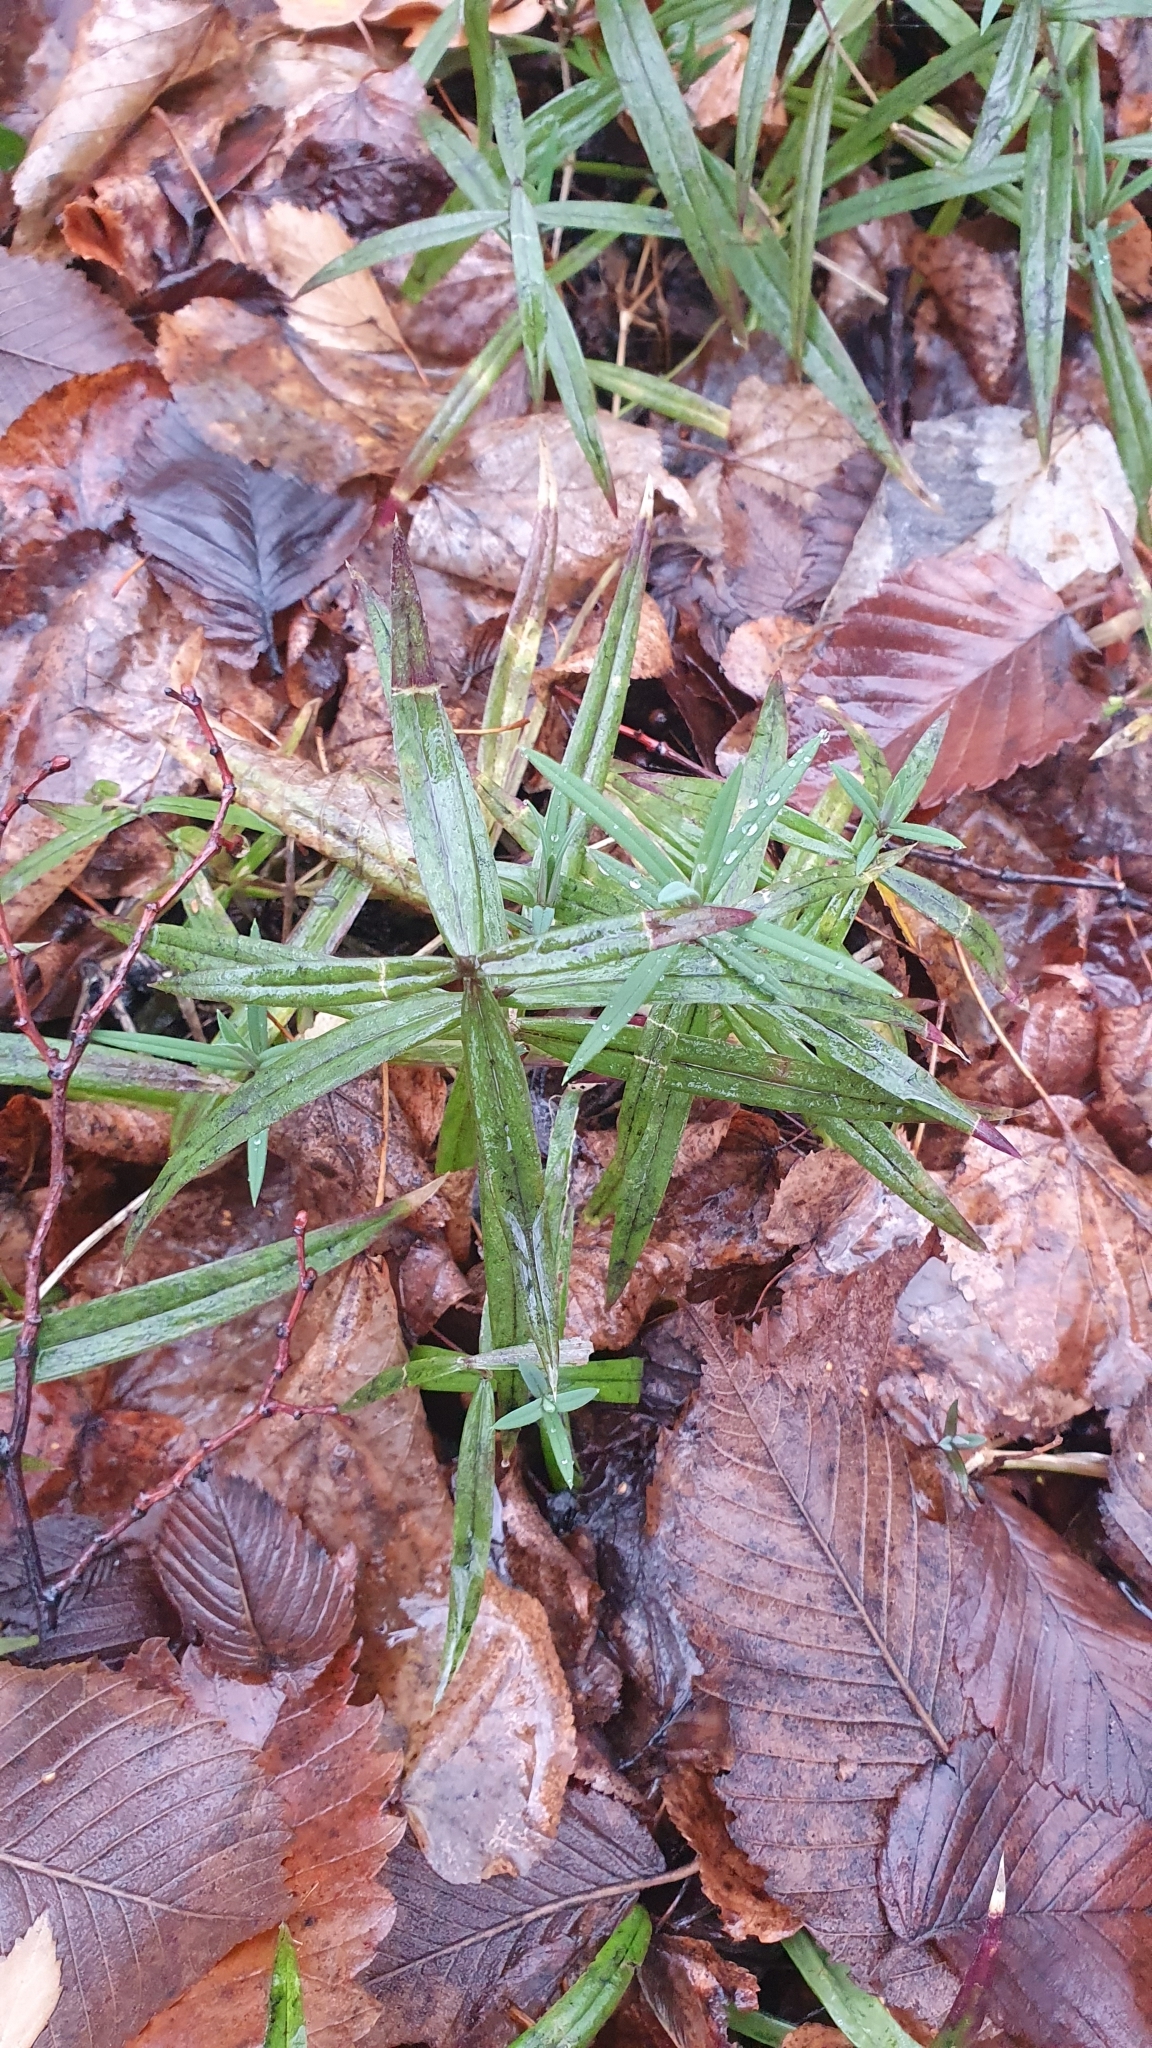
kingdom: Plantae
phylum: Tracheophyta
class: Magnoliopsida
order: Caryophyllales
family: Caryophyllaceae
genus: Rabelera
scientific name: Rabelera holostea
